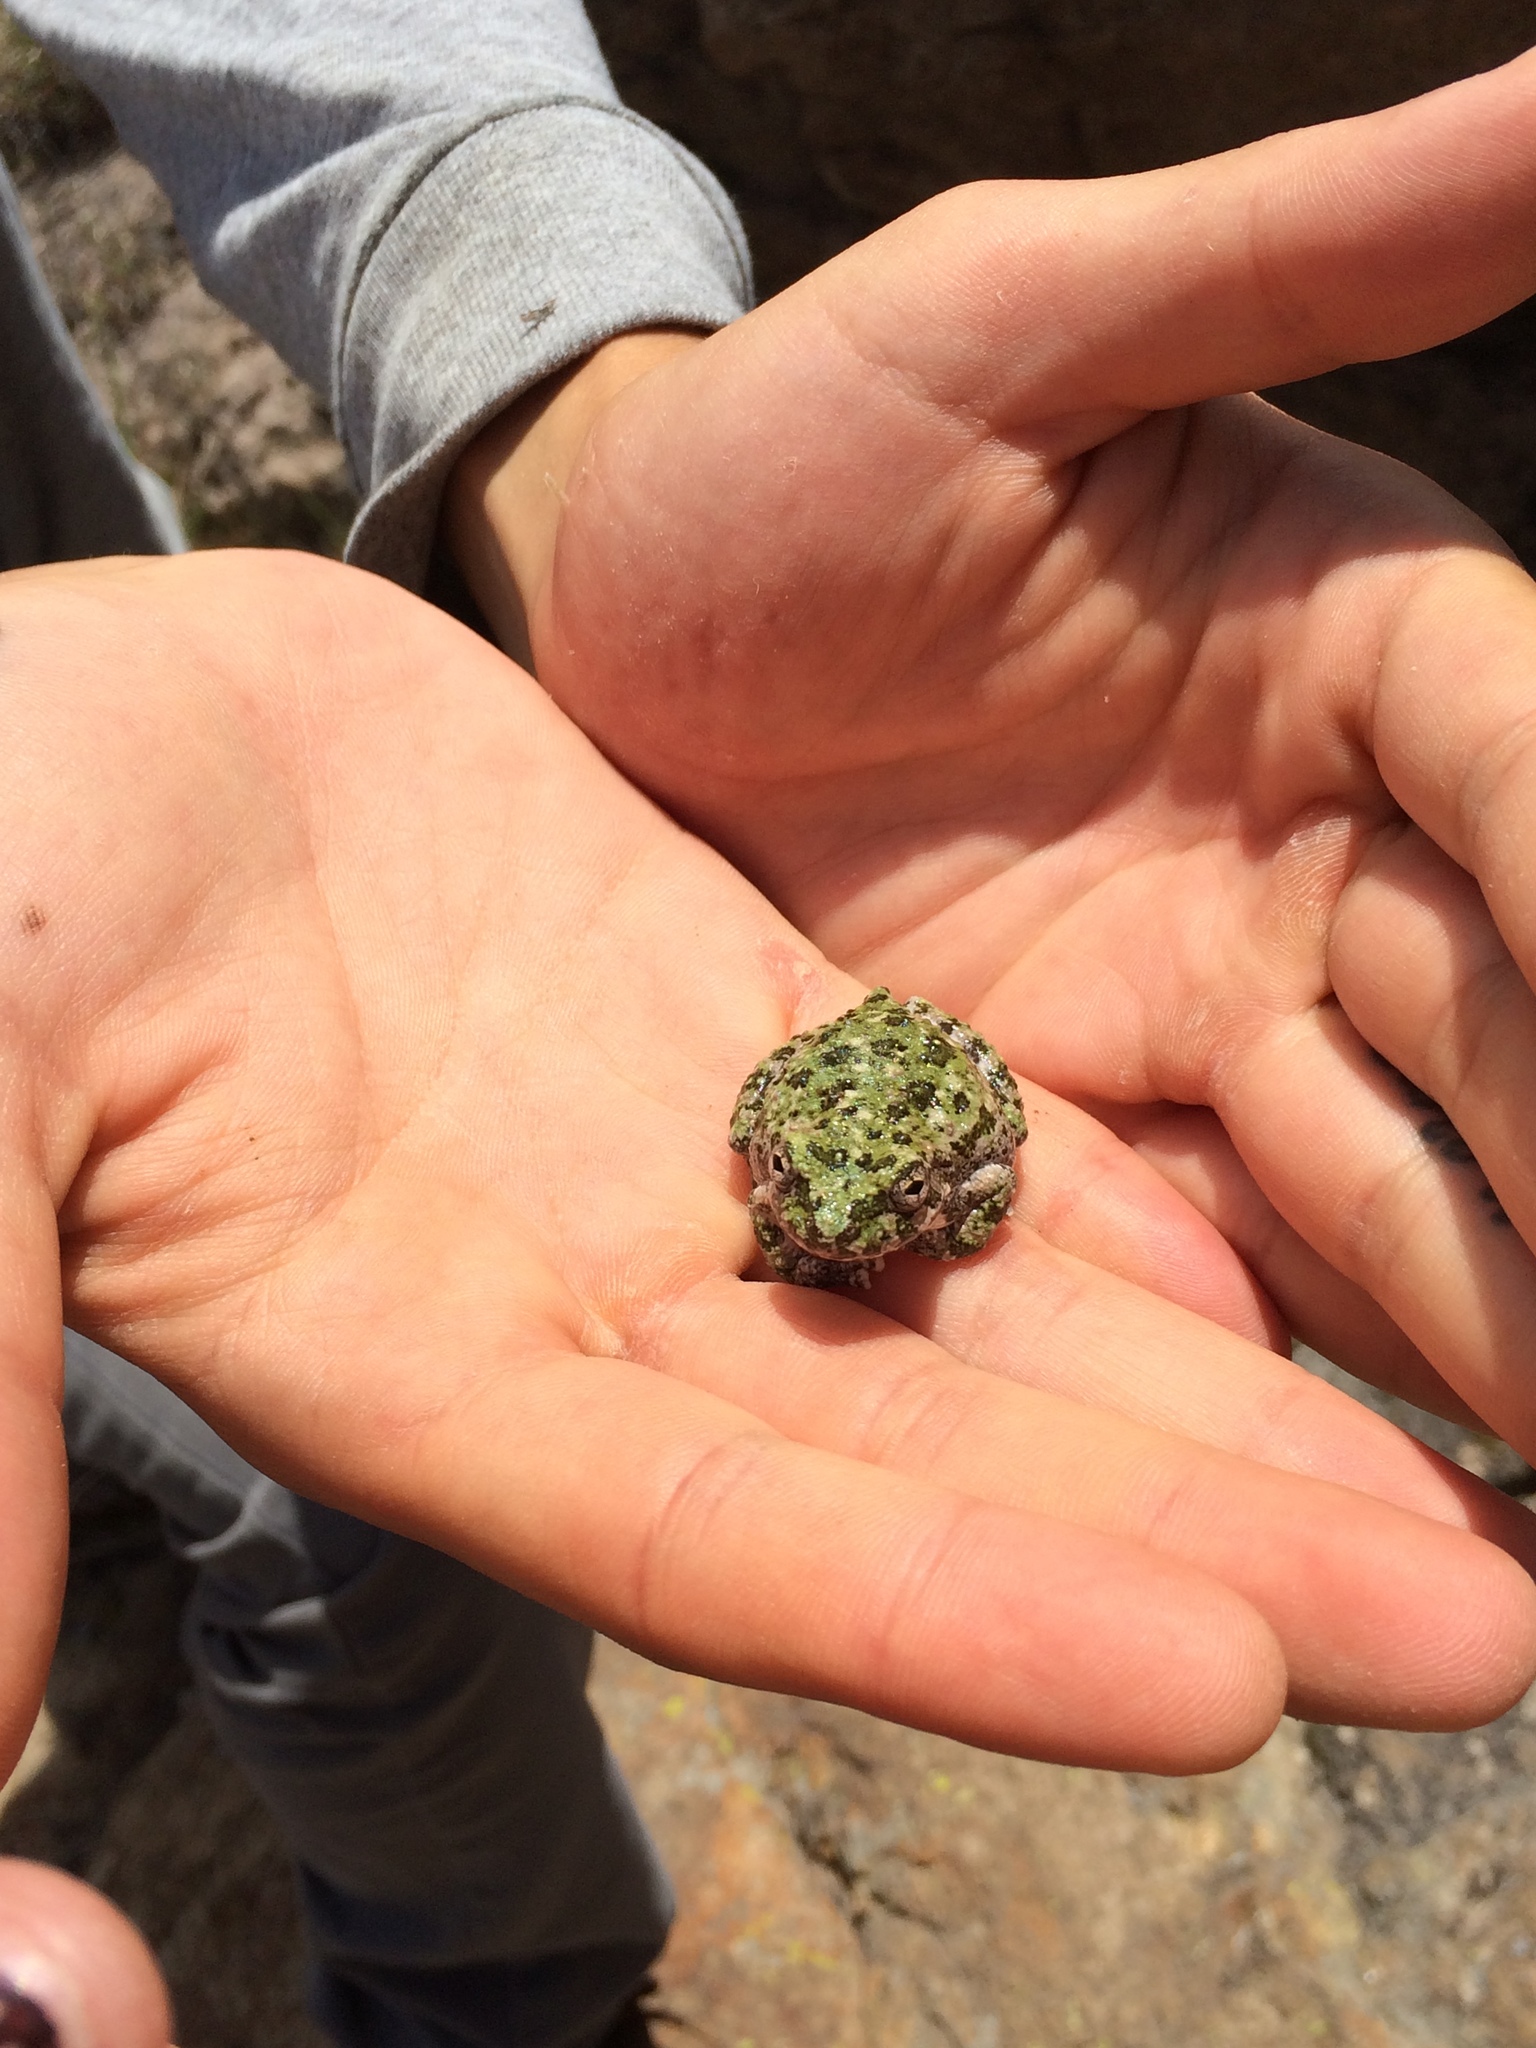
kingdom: Animalia
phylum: Chordata
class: Amphibia
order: Anura
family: Hylidae
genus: Dryophytes
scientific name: Dryophytes arenicolor
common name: Canyon treefrog
